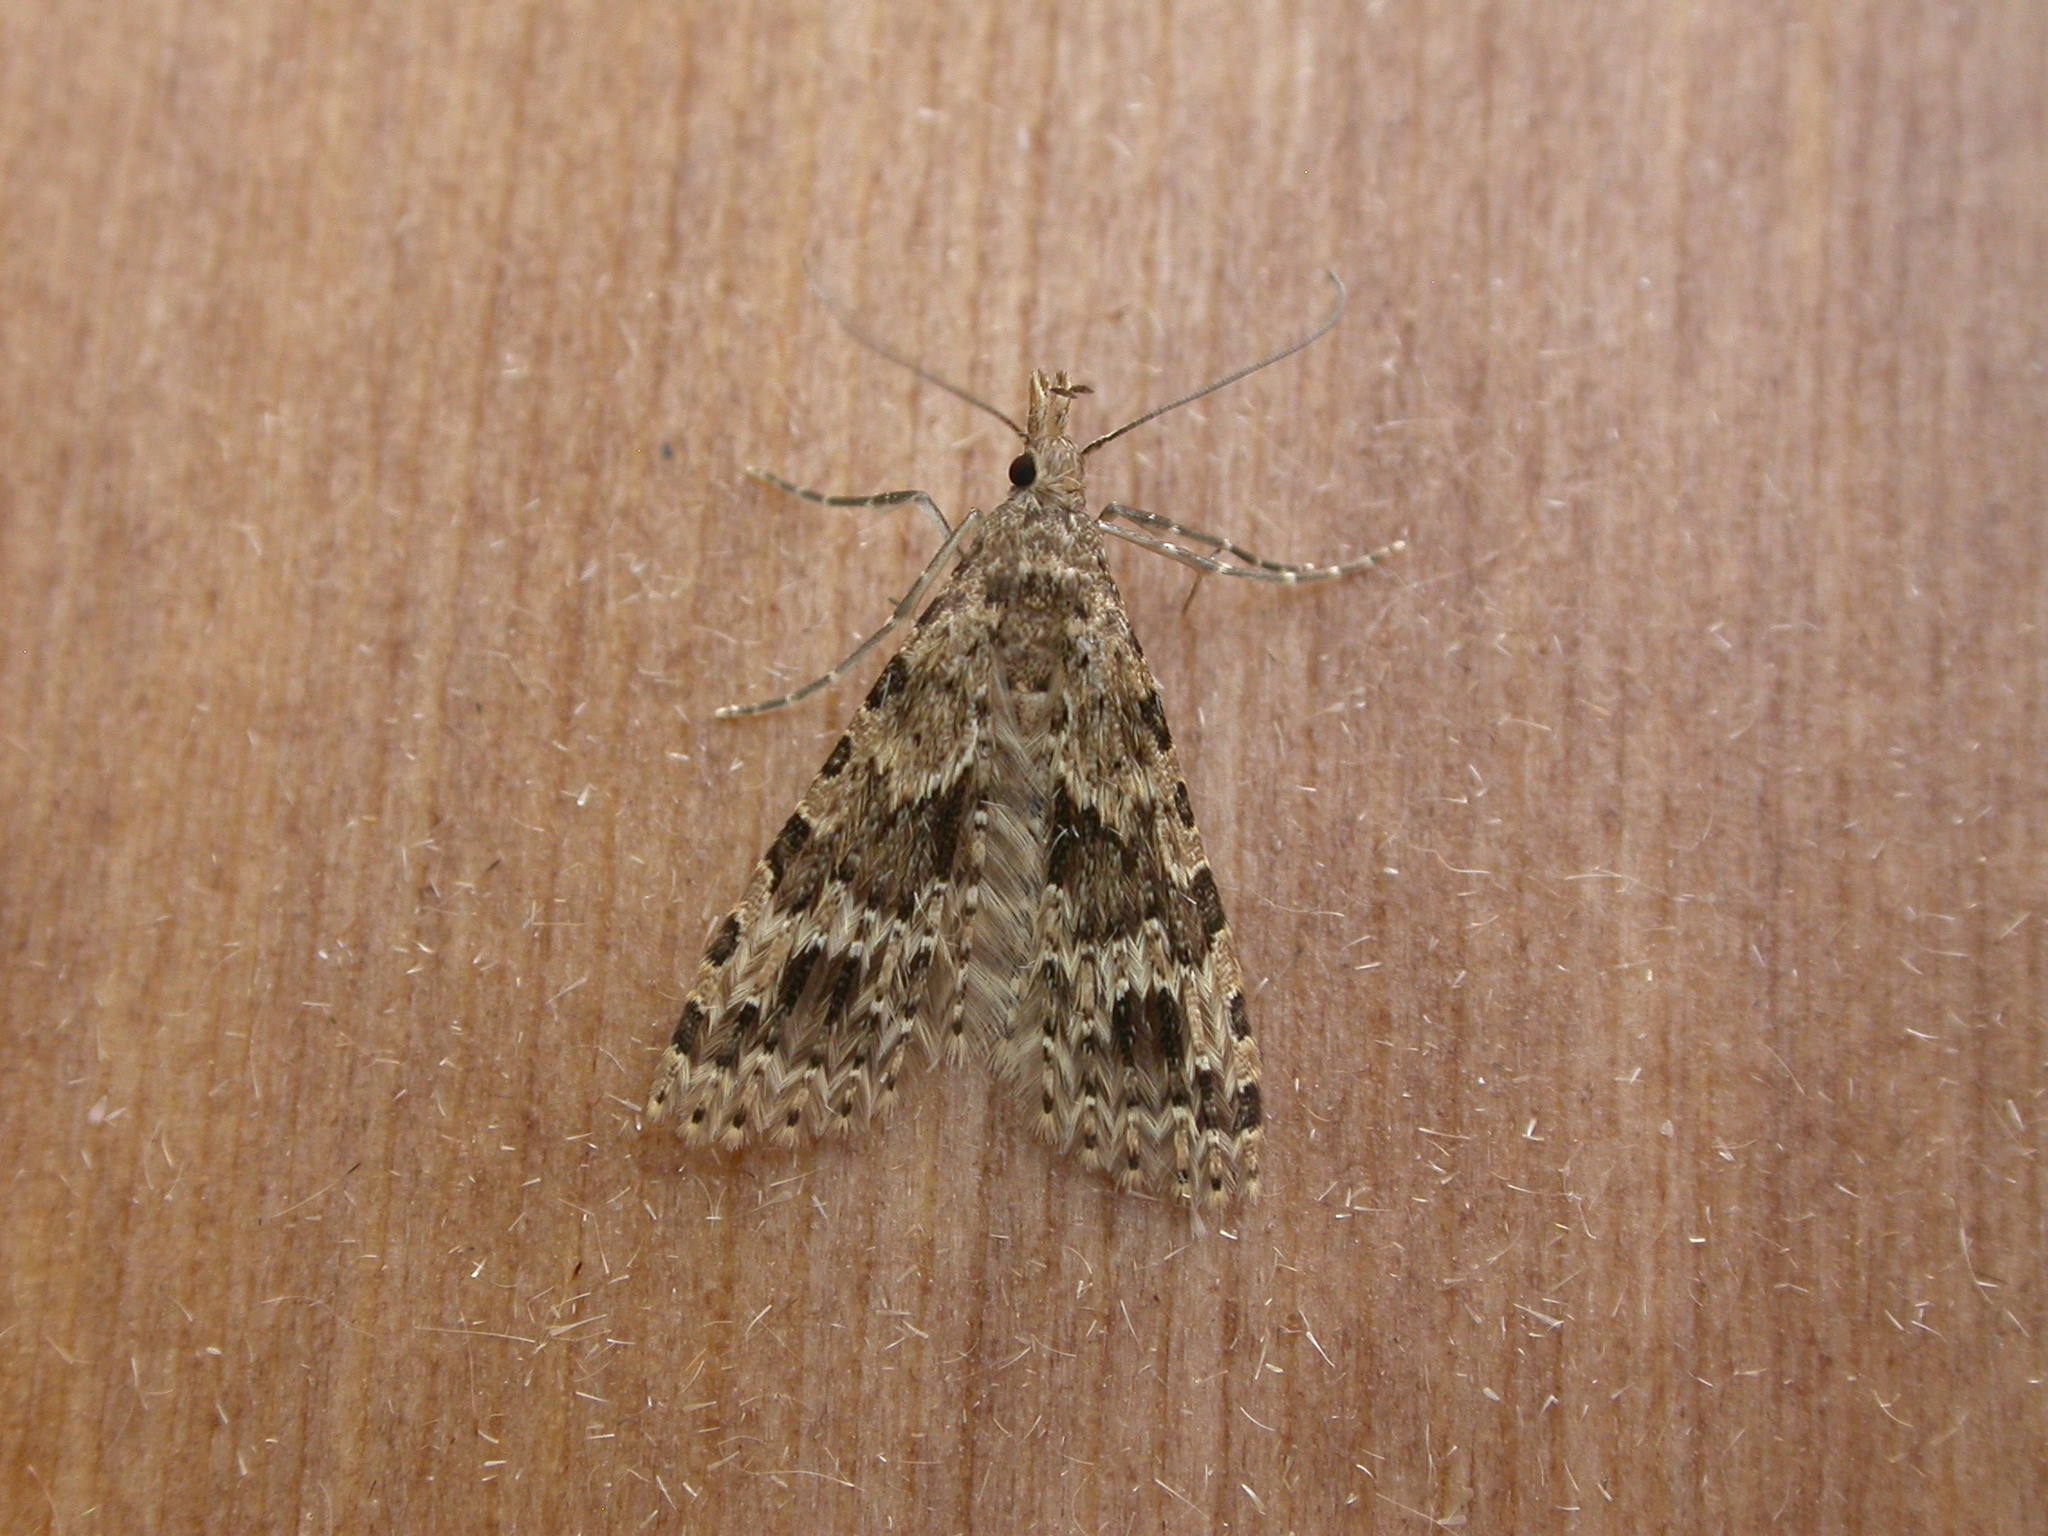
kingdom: Animalia
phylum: Arthropoda
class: Insecta
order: Lepidoptera
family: Alucitidae
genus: Alucita
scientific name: Alucita hexadactyla
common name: Twenty-plume moth
